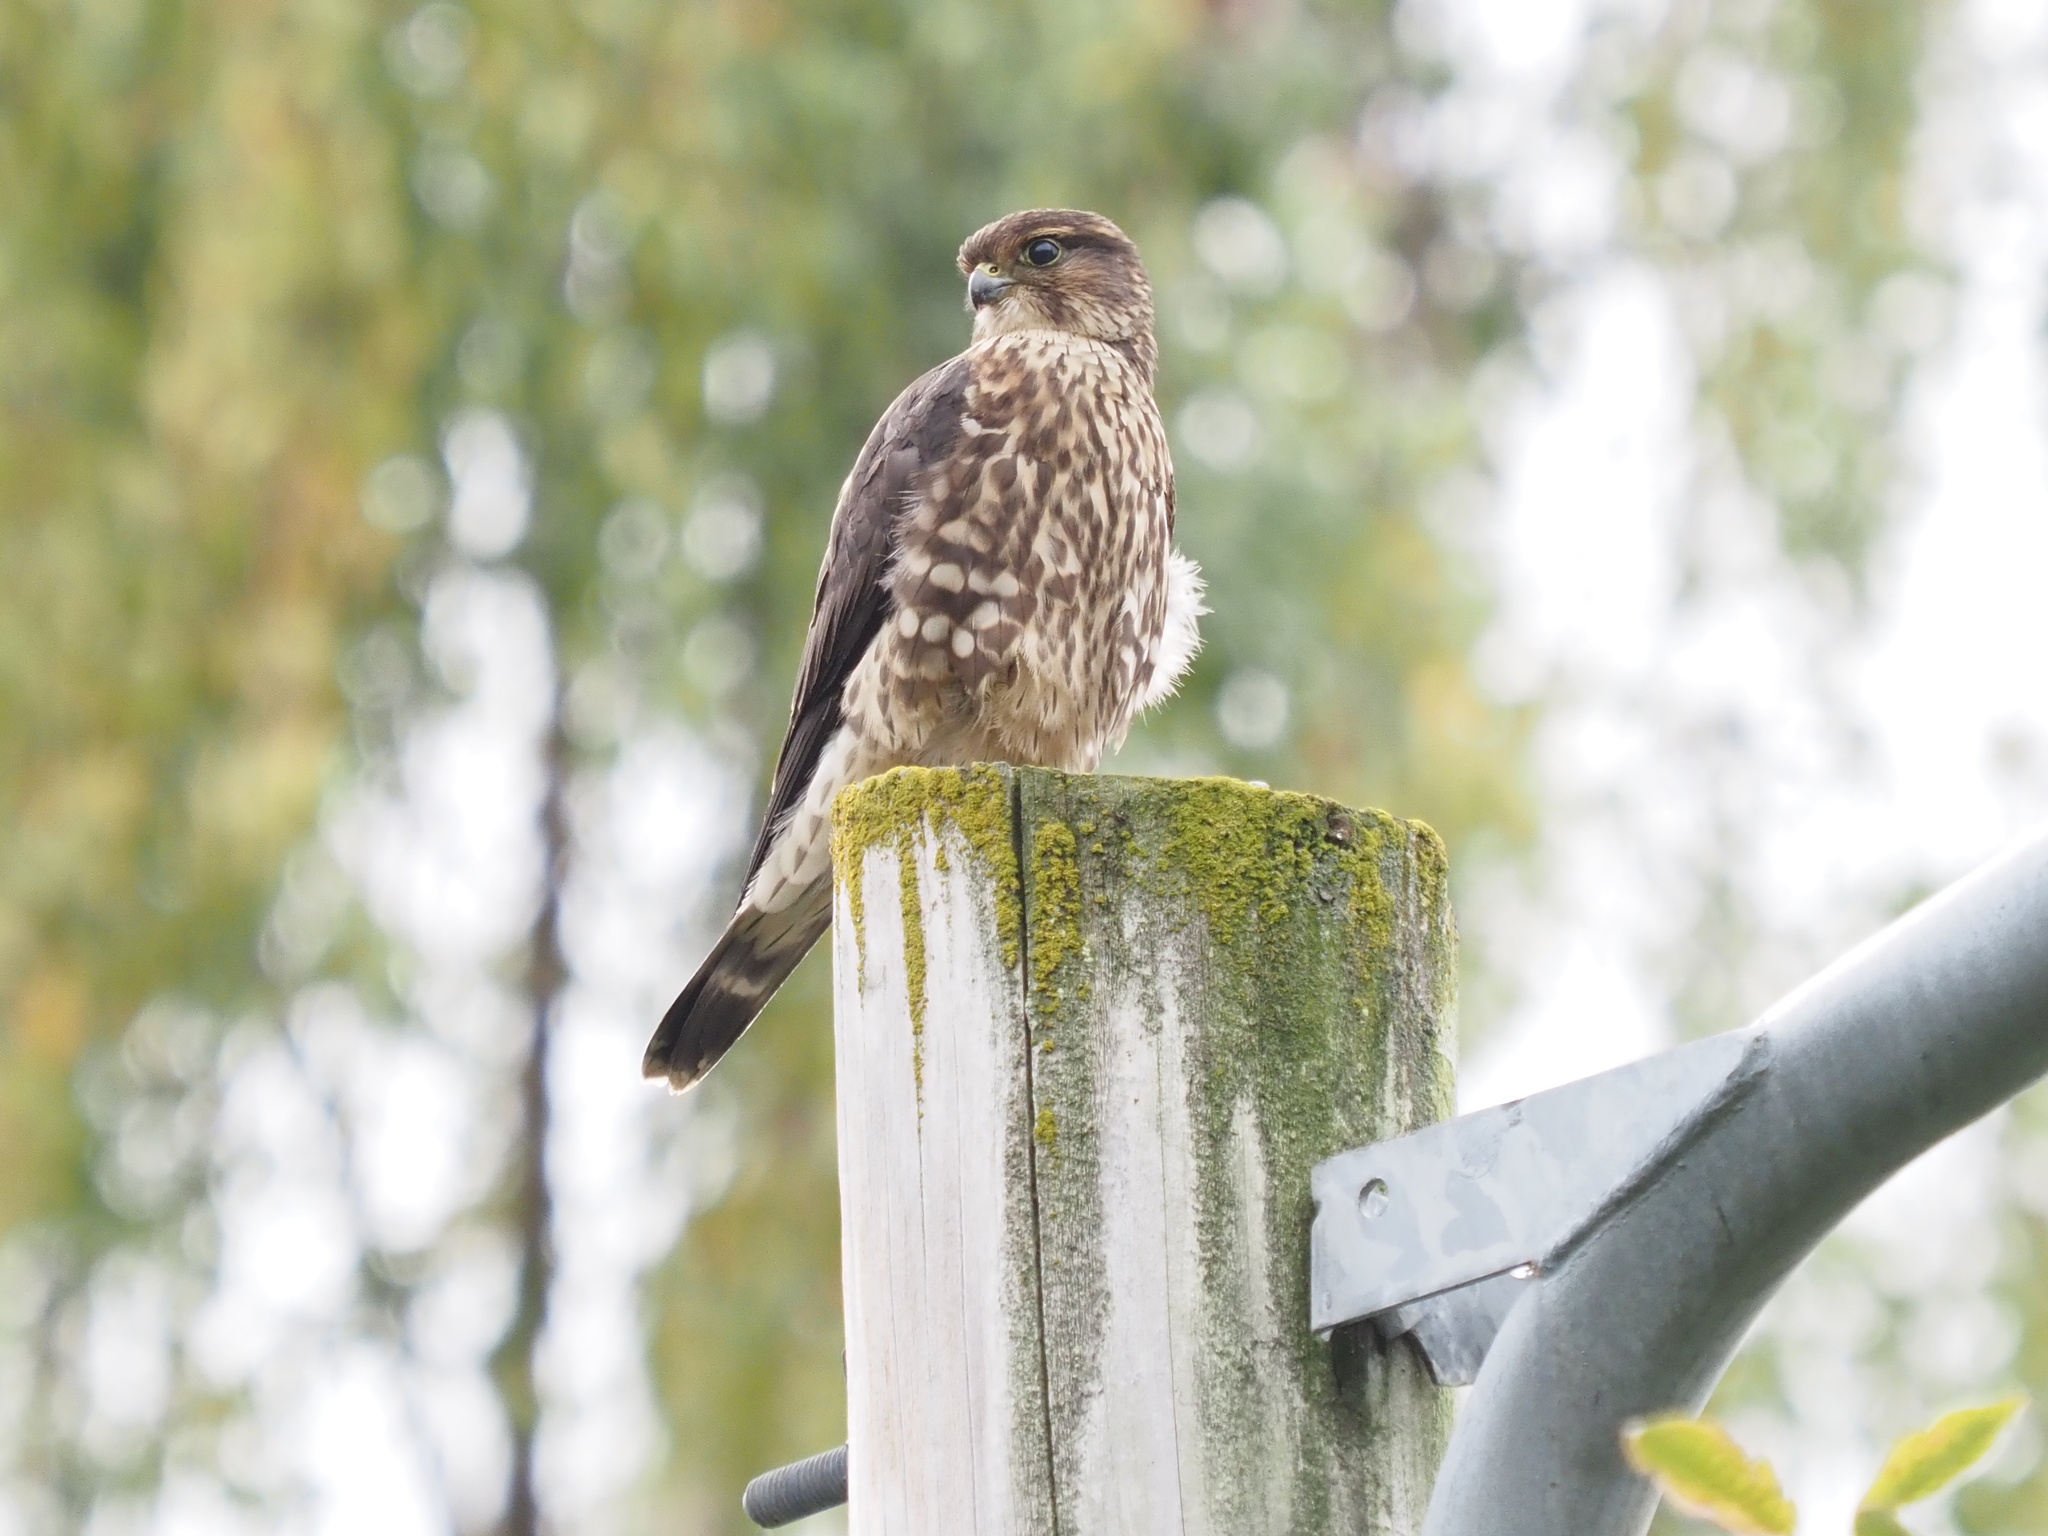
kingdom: Animalia
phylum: Chordata
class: Aves
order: Falconiformes
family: Falconidae
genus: Falco
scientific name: Falco columbarius
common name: Merlin
